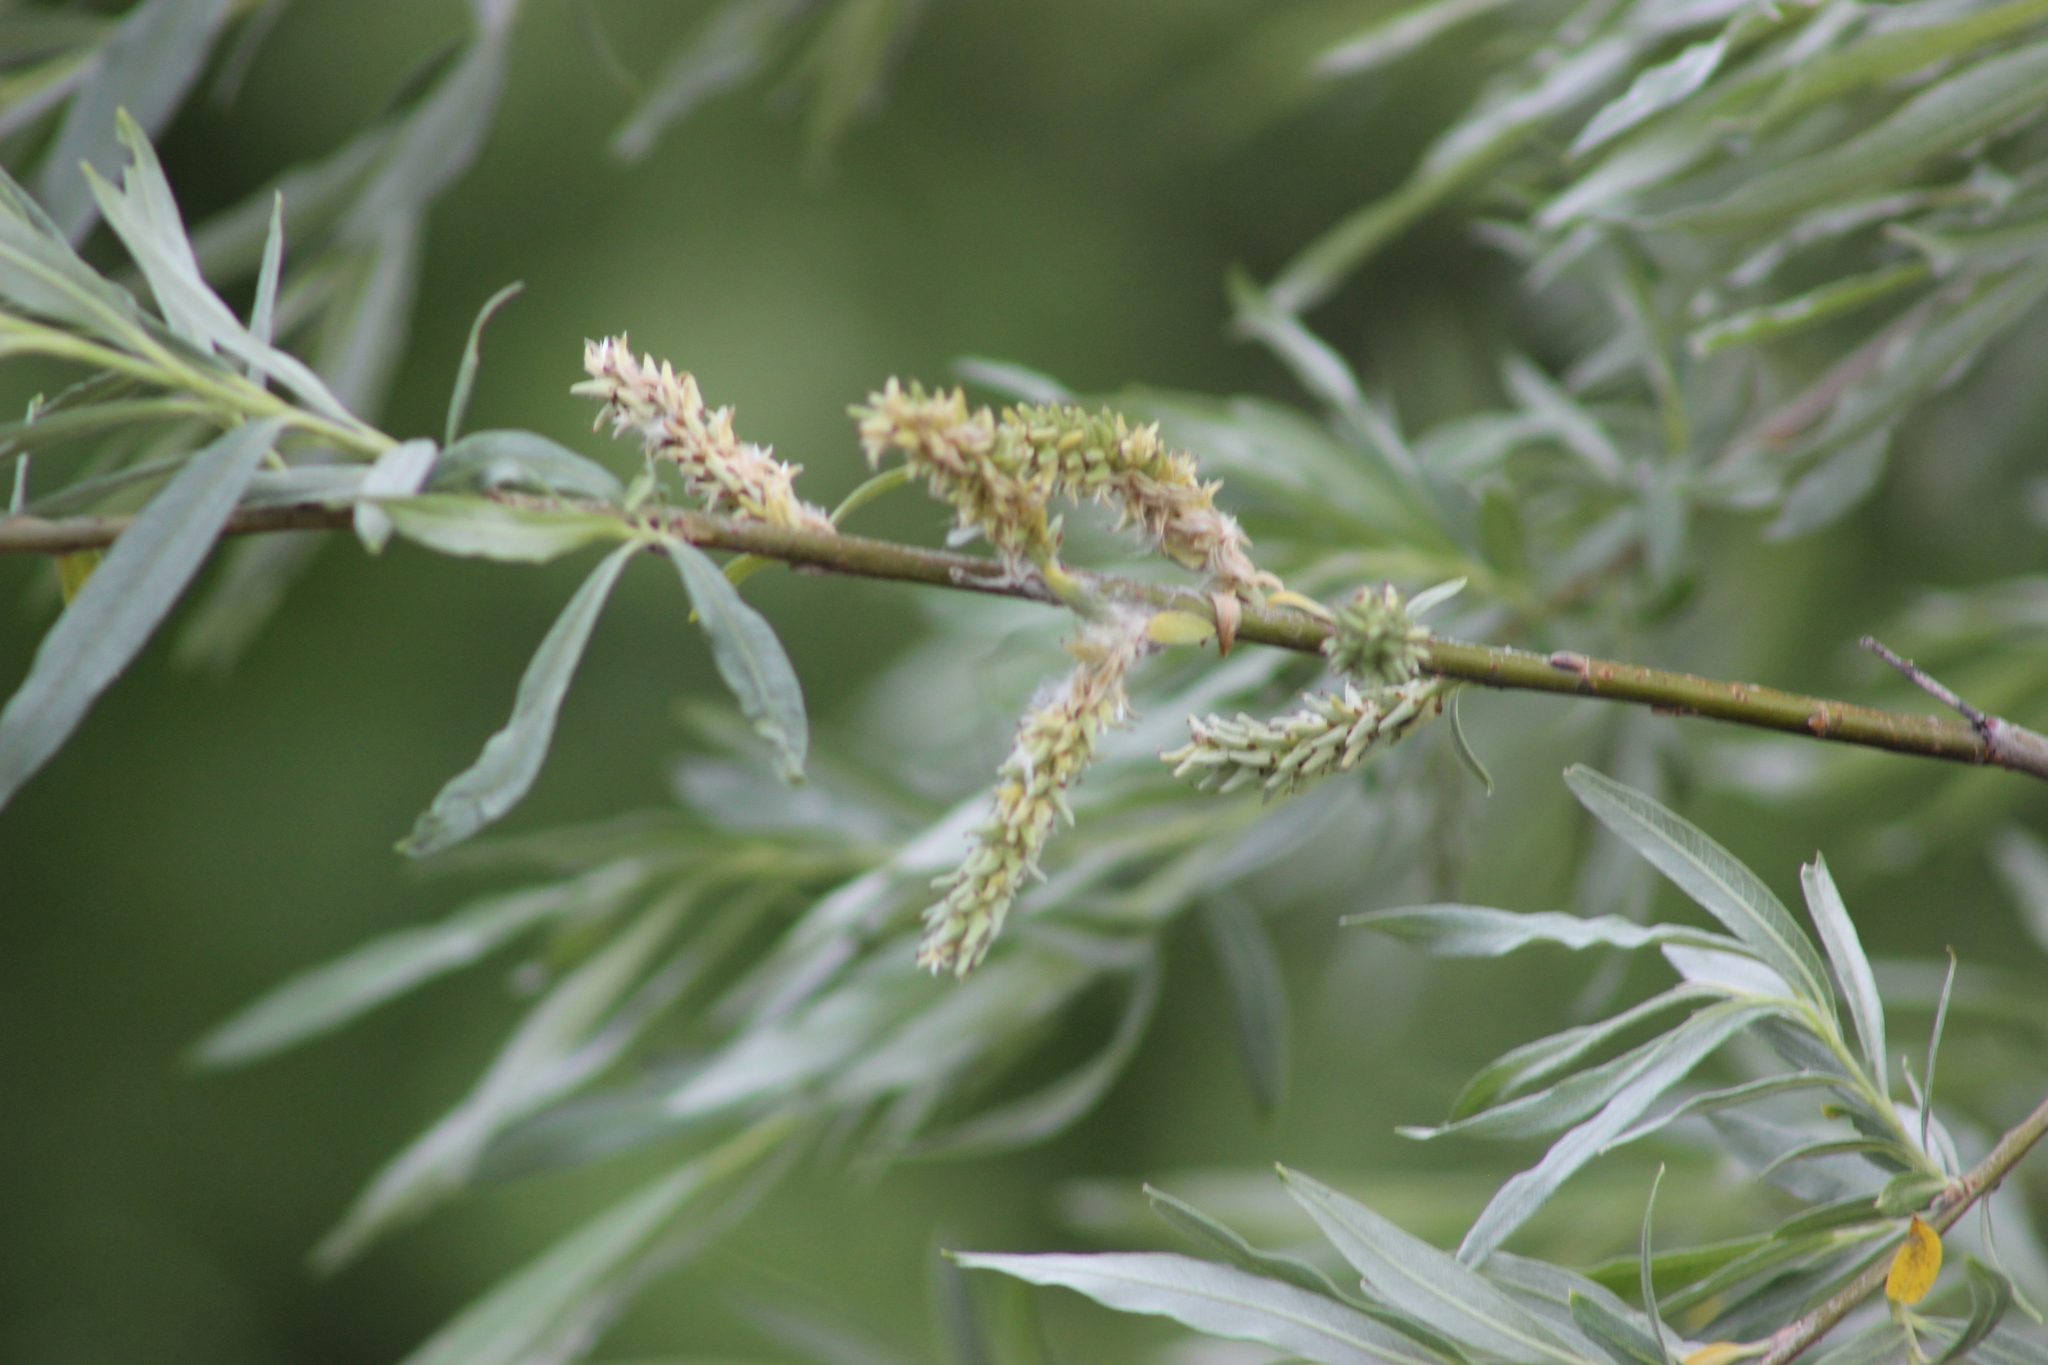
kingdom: Plantae
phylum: Tracheophyta
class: Magnoliopsida
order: Malpighiales
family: Salicaceae
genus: Salix
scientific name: Salix viminalis
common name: Osier
